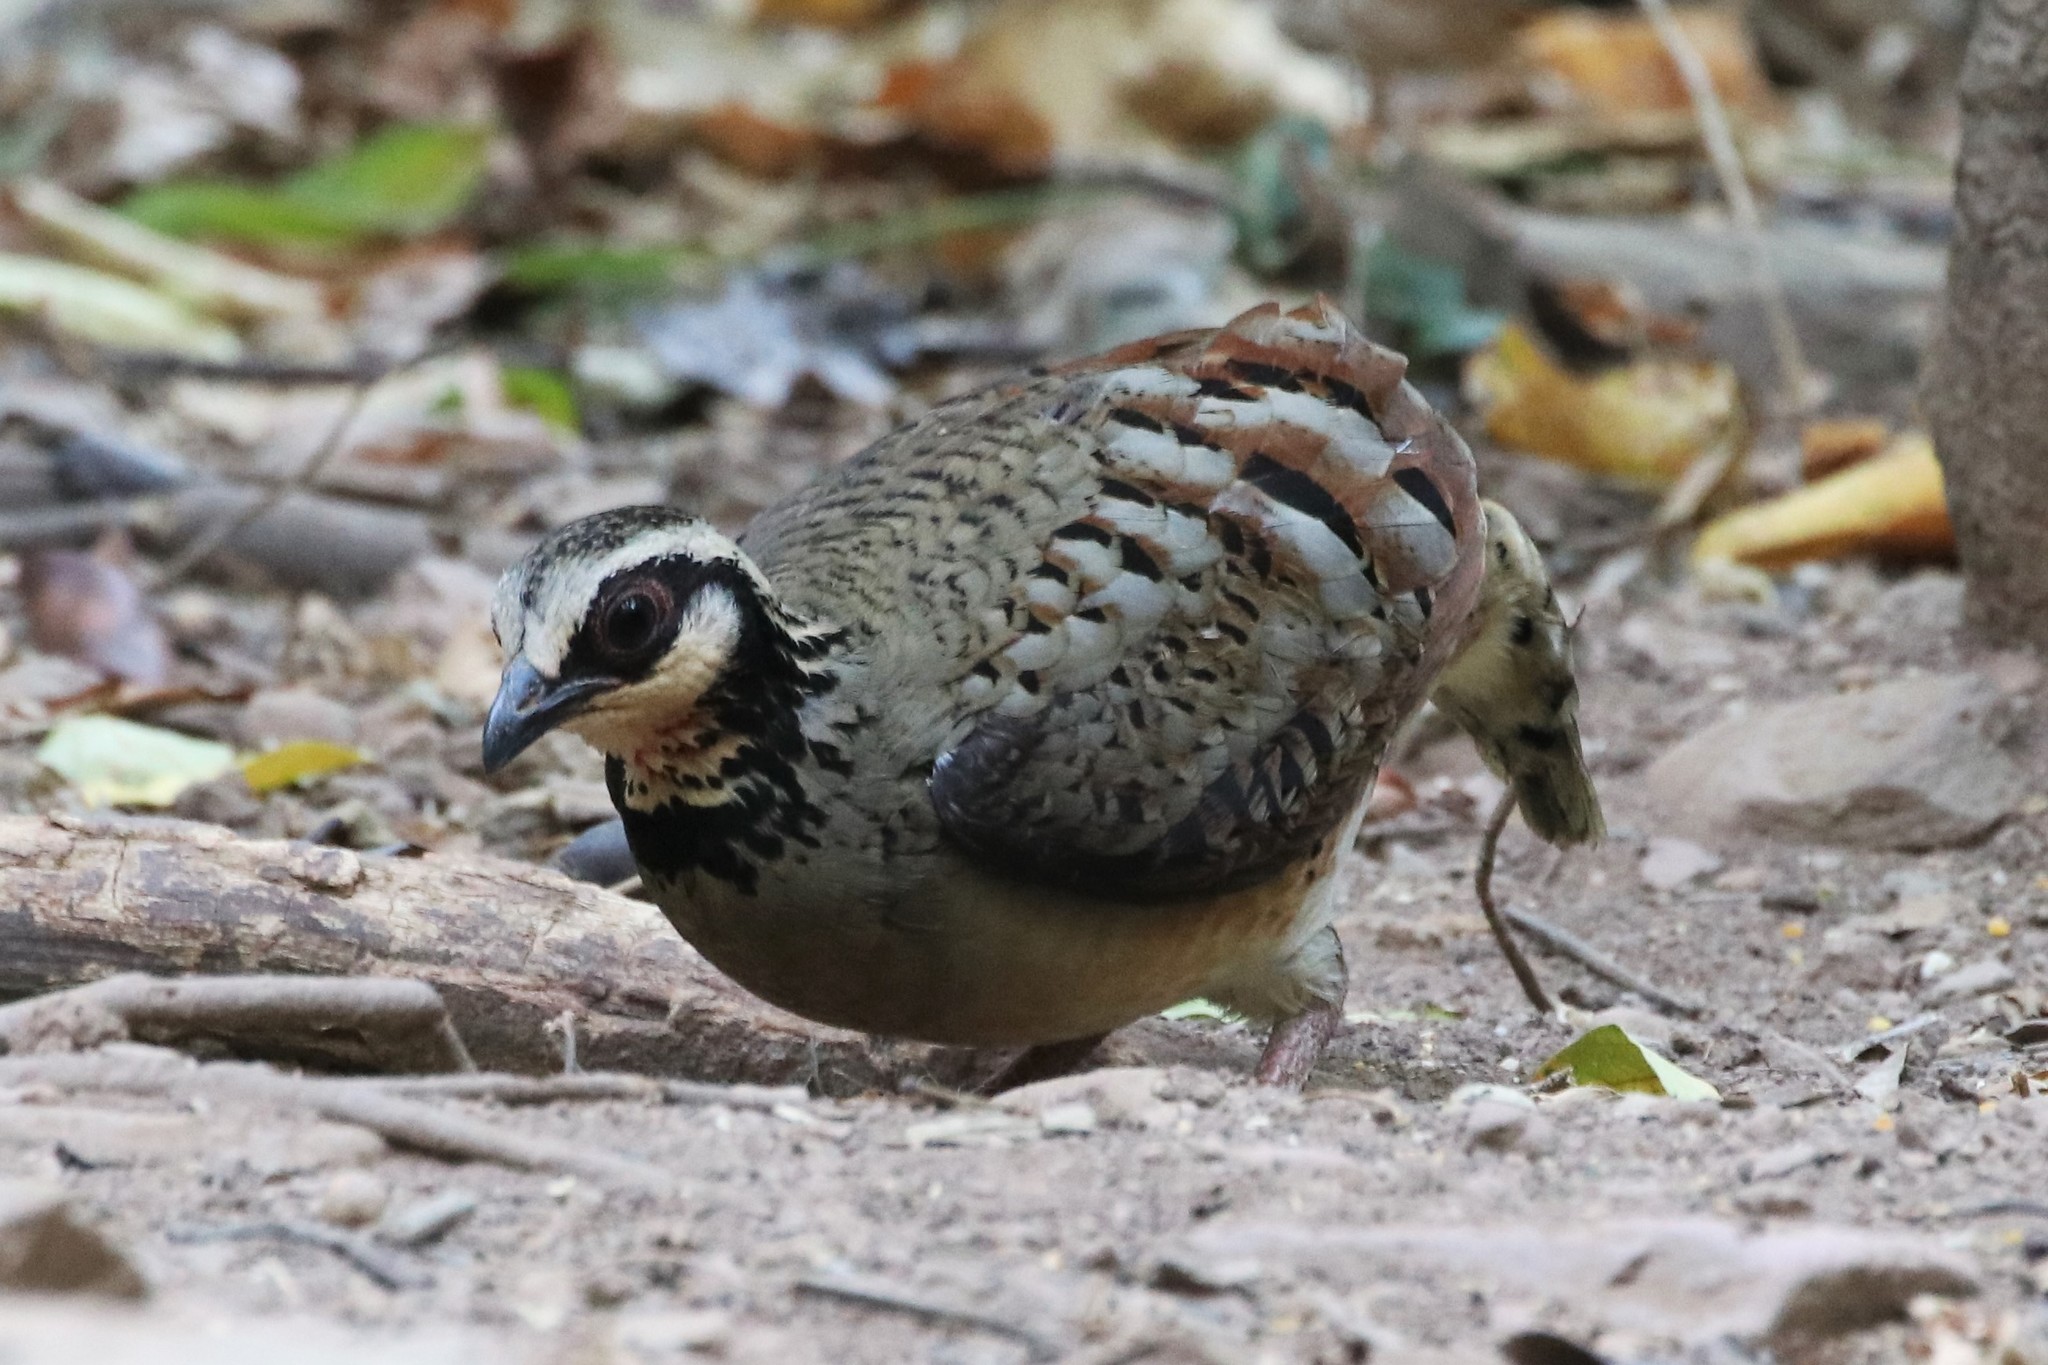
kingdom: Animalia
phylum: Chordata
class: Aves
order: Galliformes
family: Phasianidae
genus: Arborophila
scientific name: Arborophila brunneopectus
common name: Bar-backed partridge
